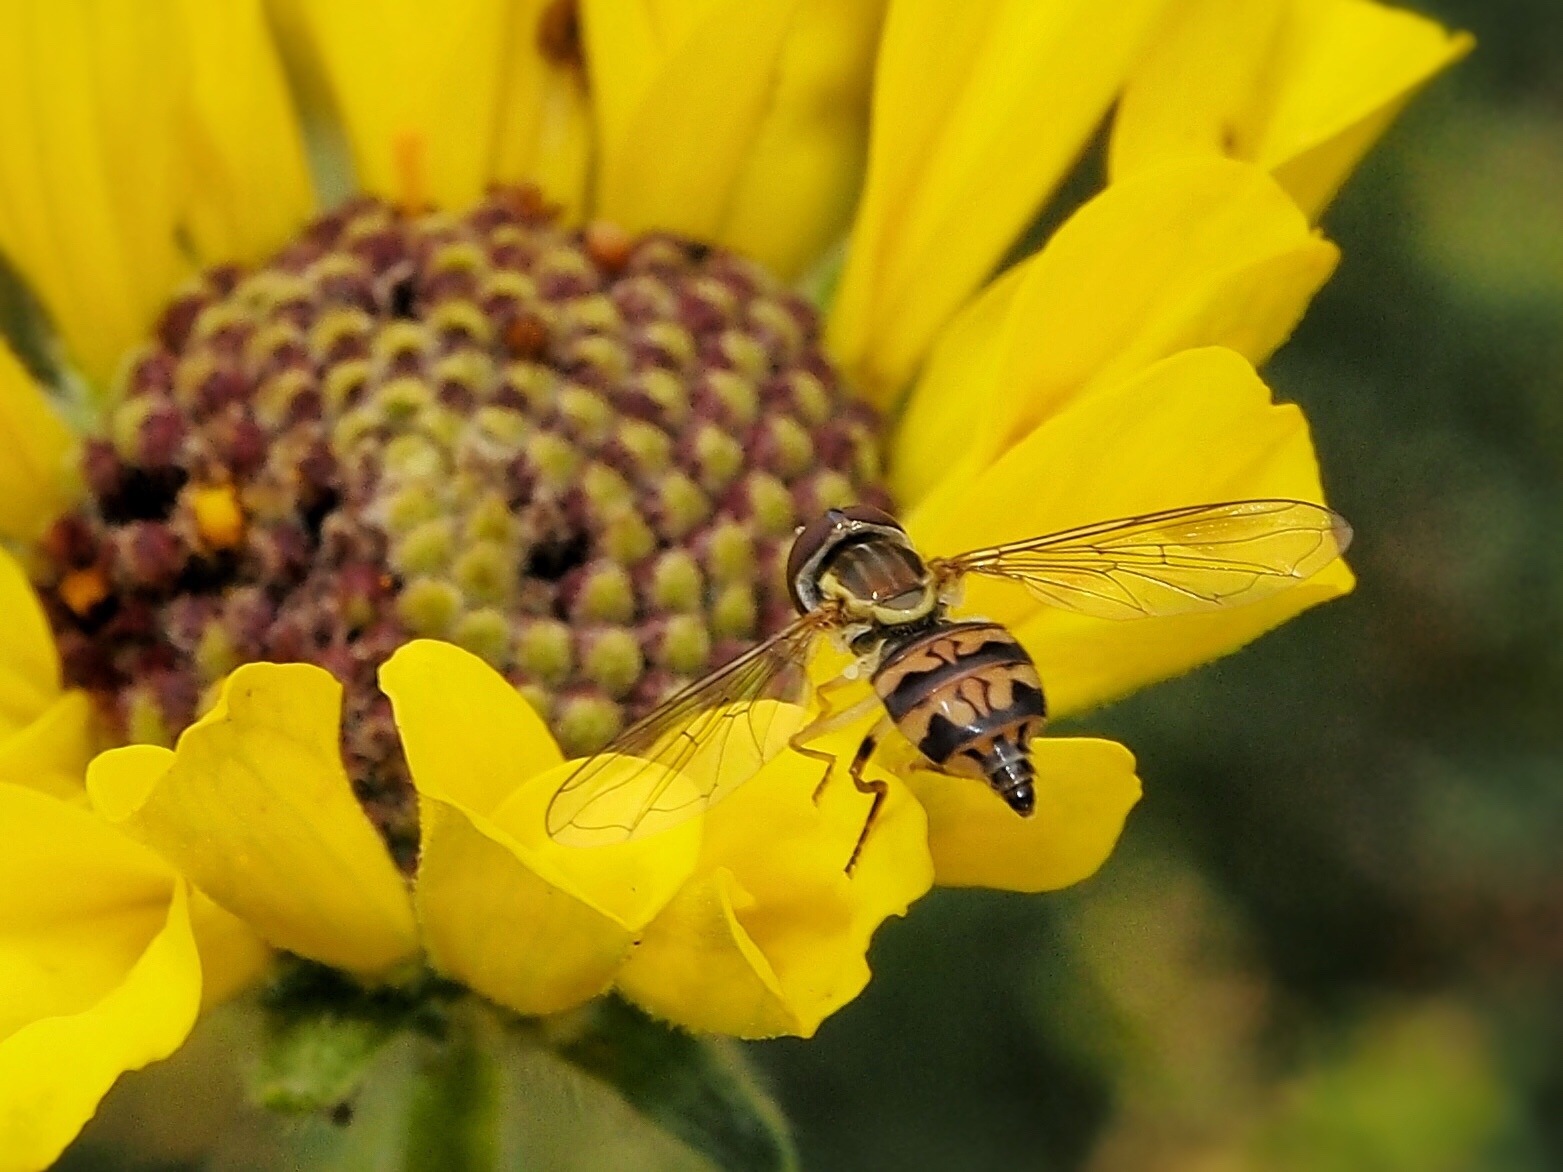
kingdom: Animalia
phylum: Arthropoda
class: Insecta
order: Diptera
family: Syrphidae
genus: Toxomerus
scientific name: Toxomerus occidentalis
